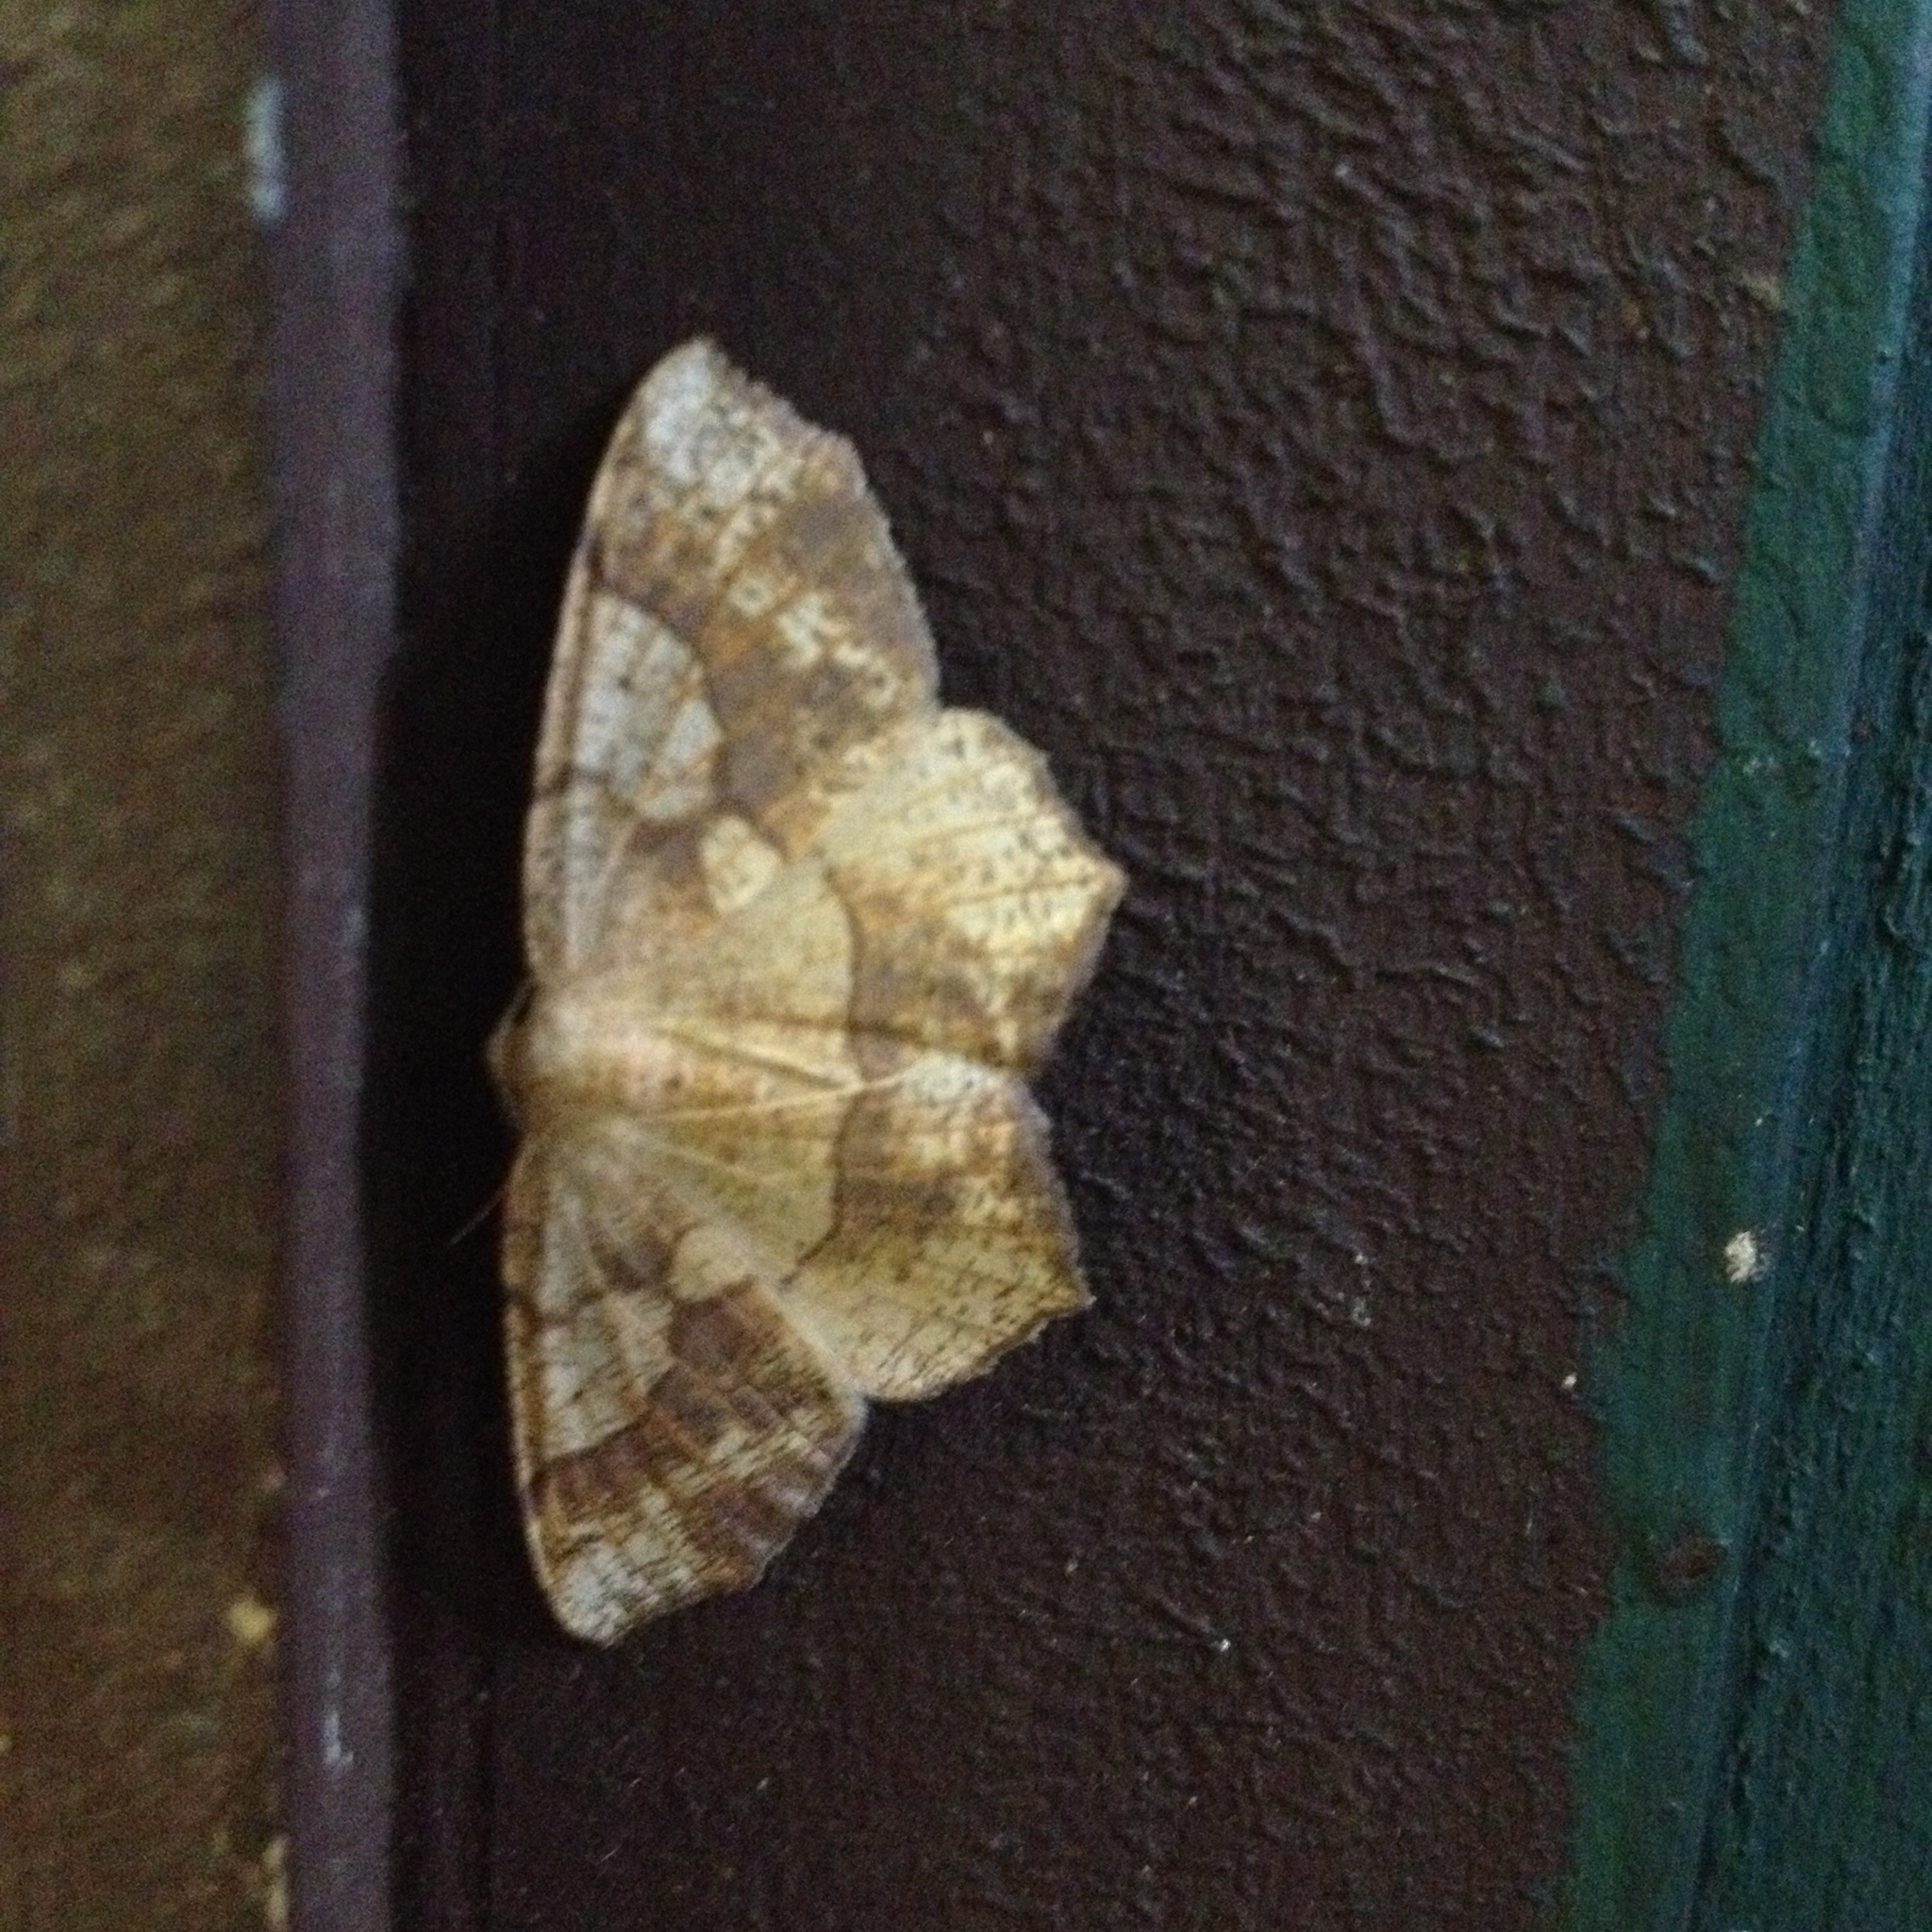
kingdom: Animalia
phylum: Arthropoda
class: Insecta
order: Lepidoptera
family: Geometridae
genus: Besma
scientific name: Besma quercivoraria
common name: Oak besma
